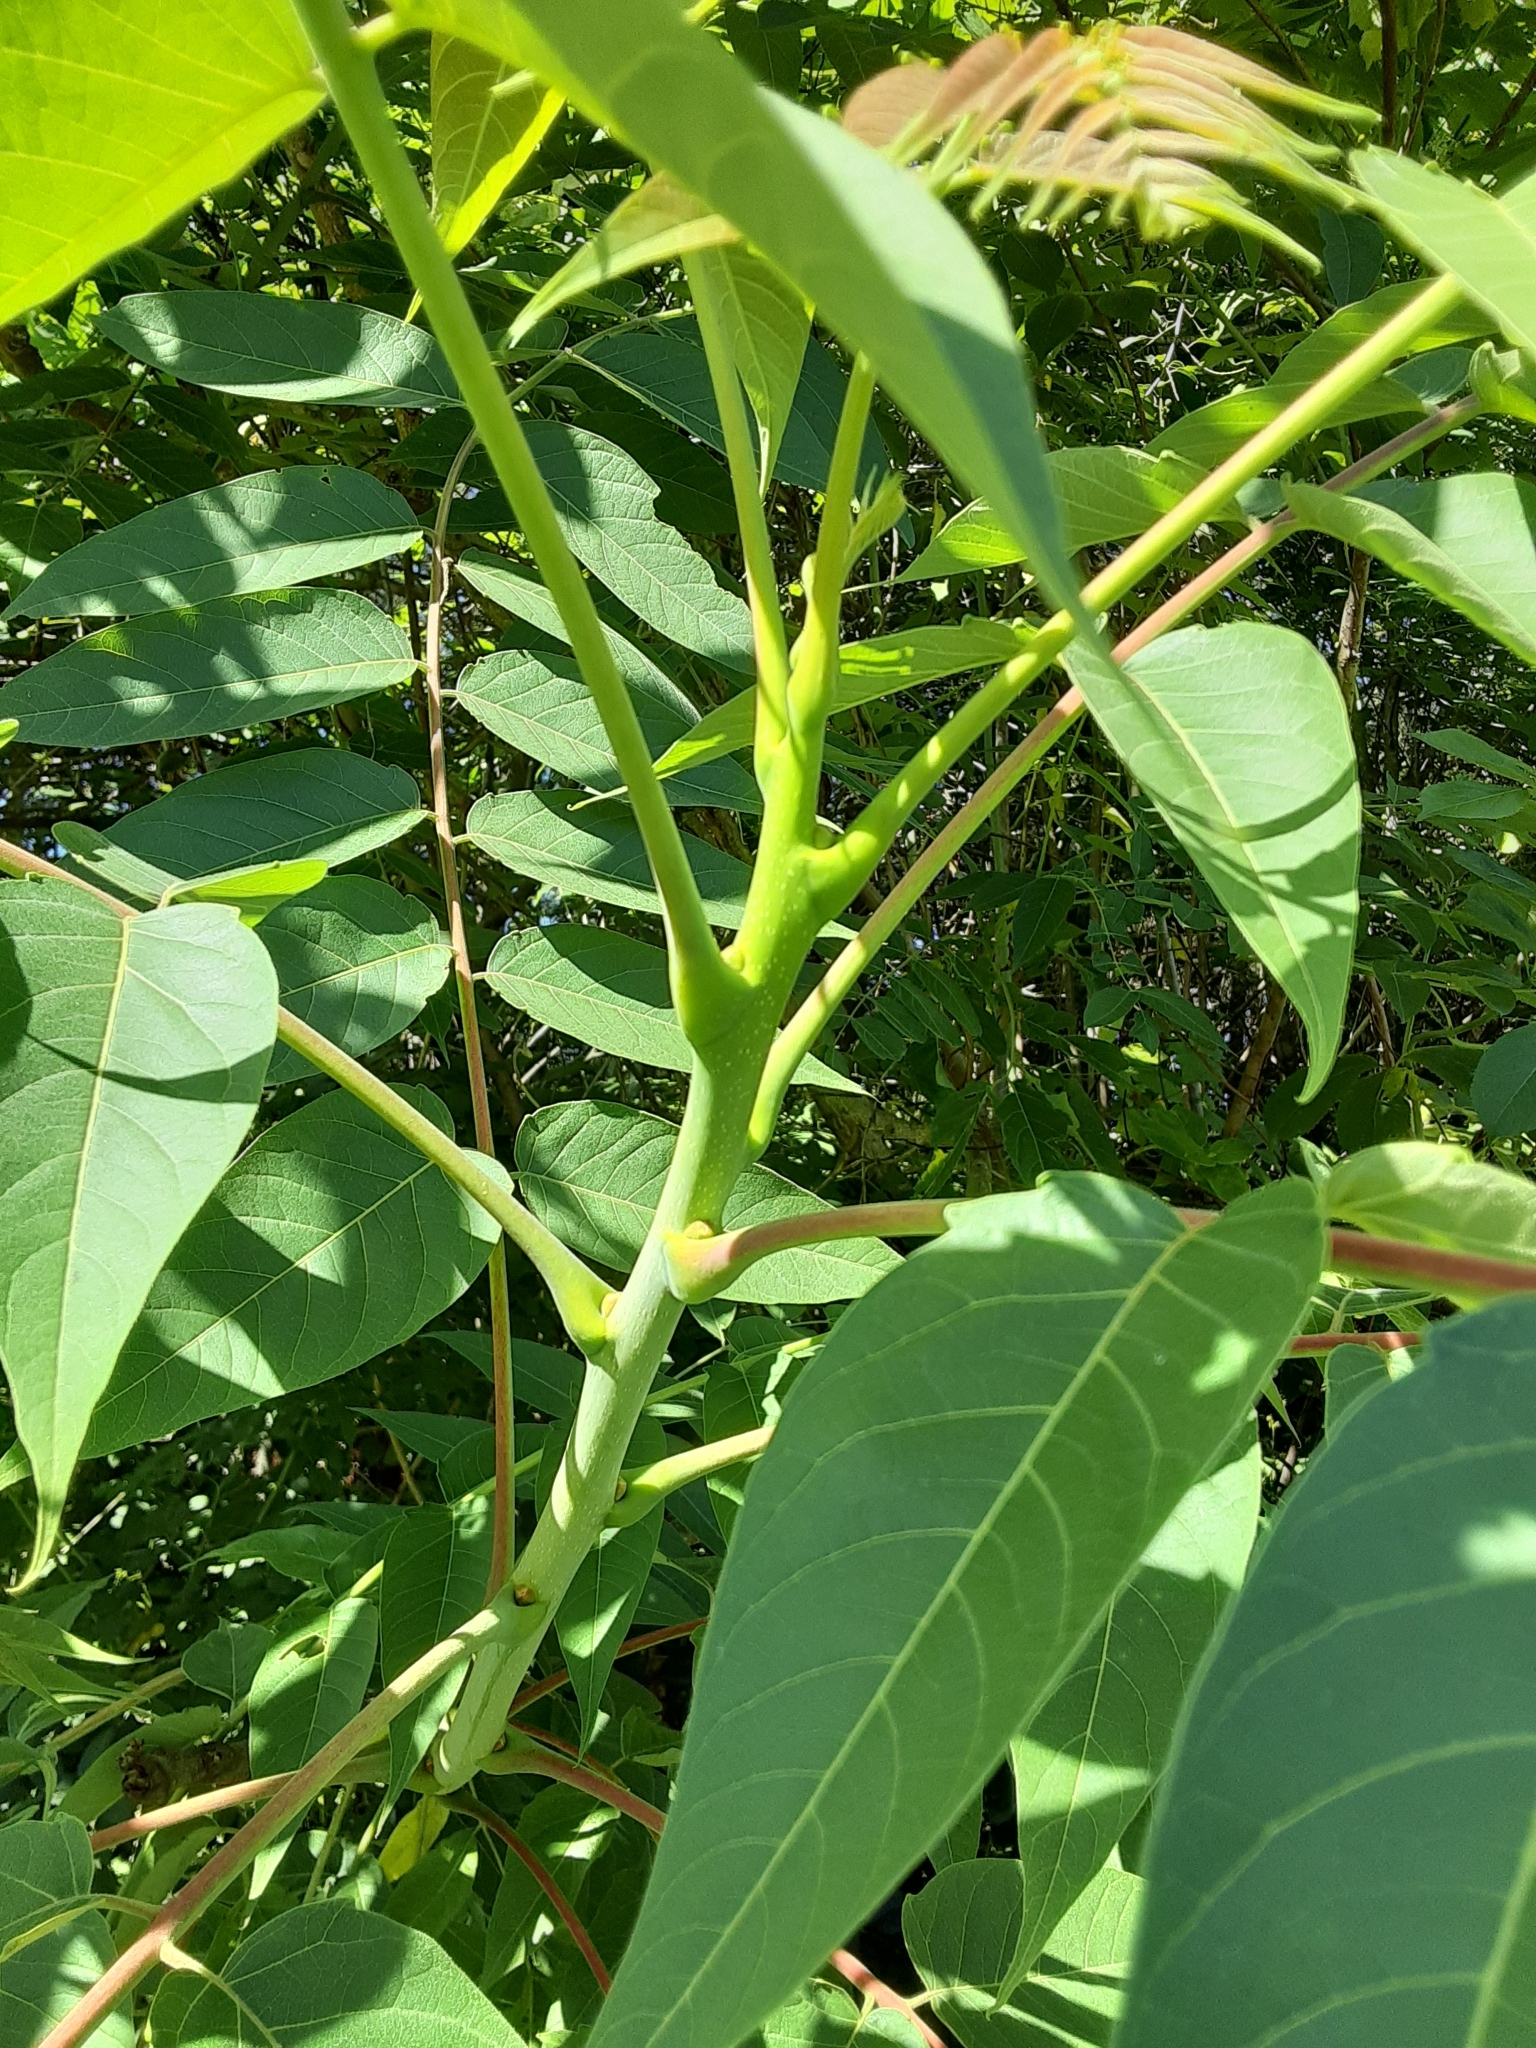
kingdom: Plantae
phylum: Tracheophyta
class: Magnoliopsida
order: Sapindales
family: Simaroubaceae
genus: Ailanthus
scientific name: Ailanthus altissima
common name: Tree-of-heaven
